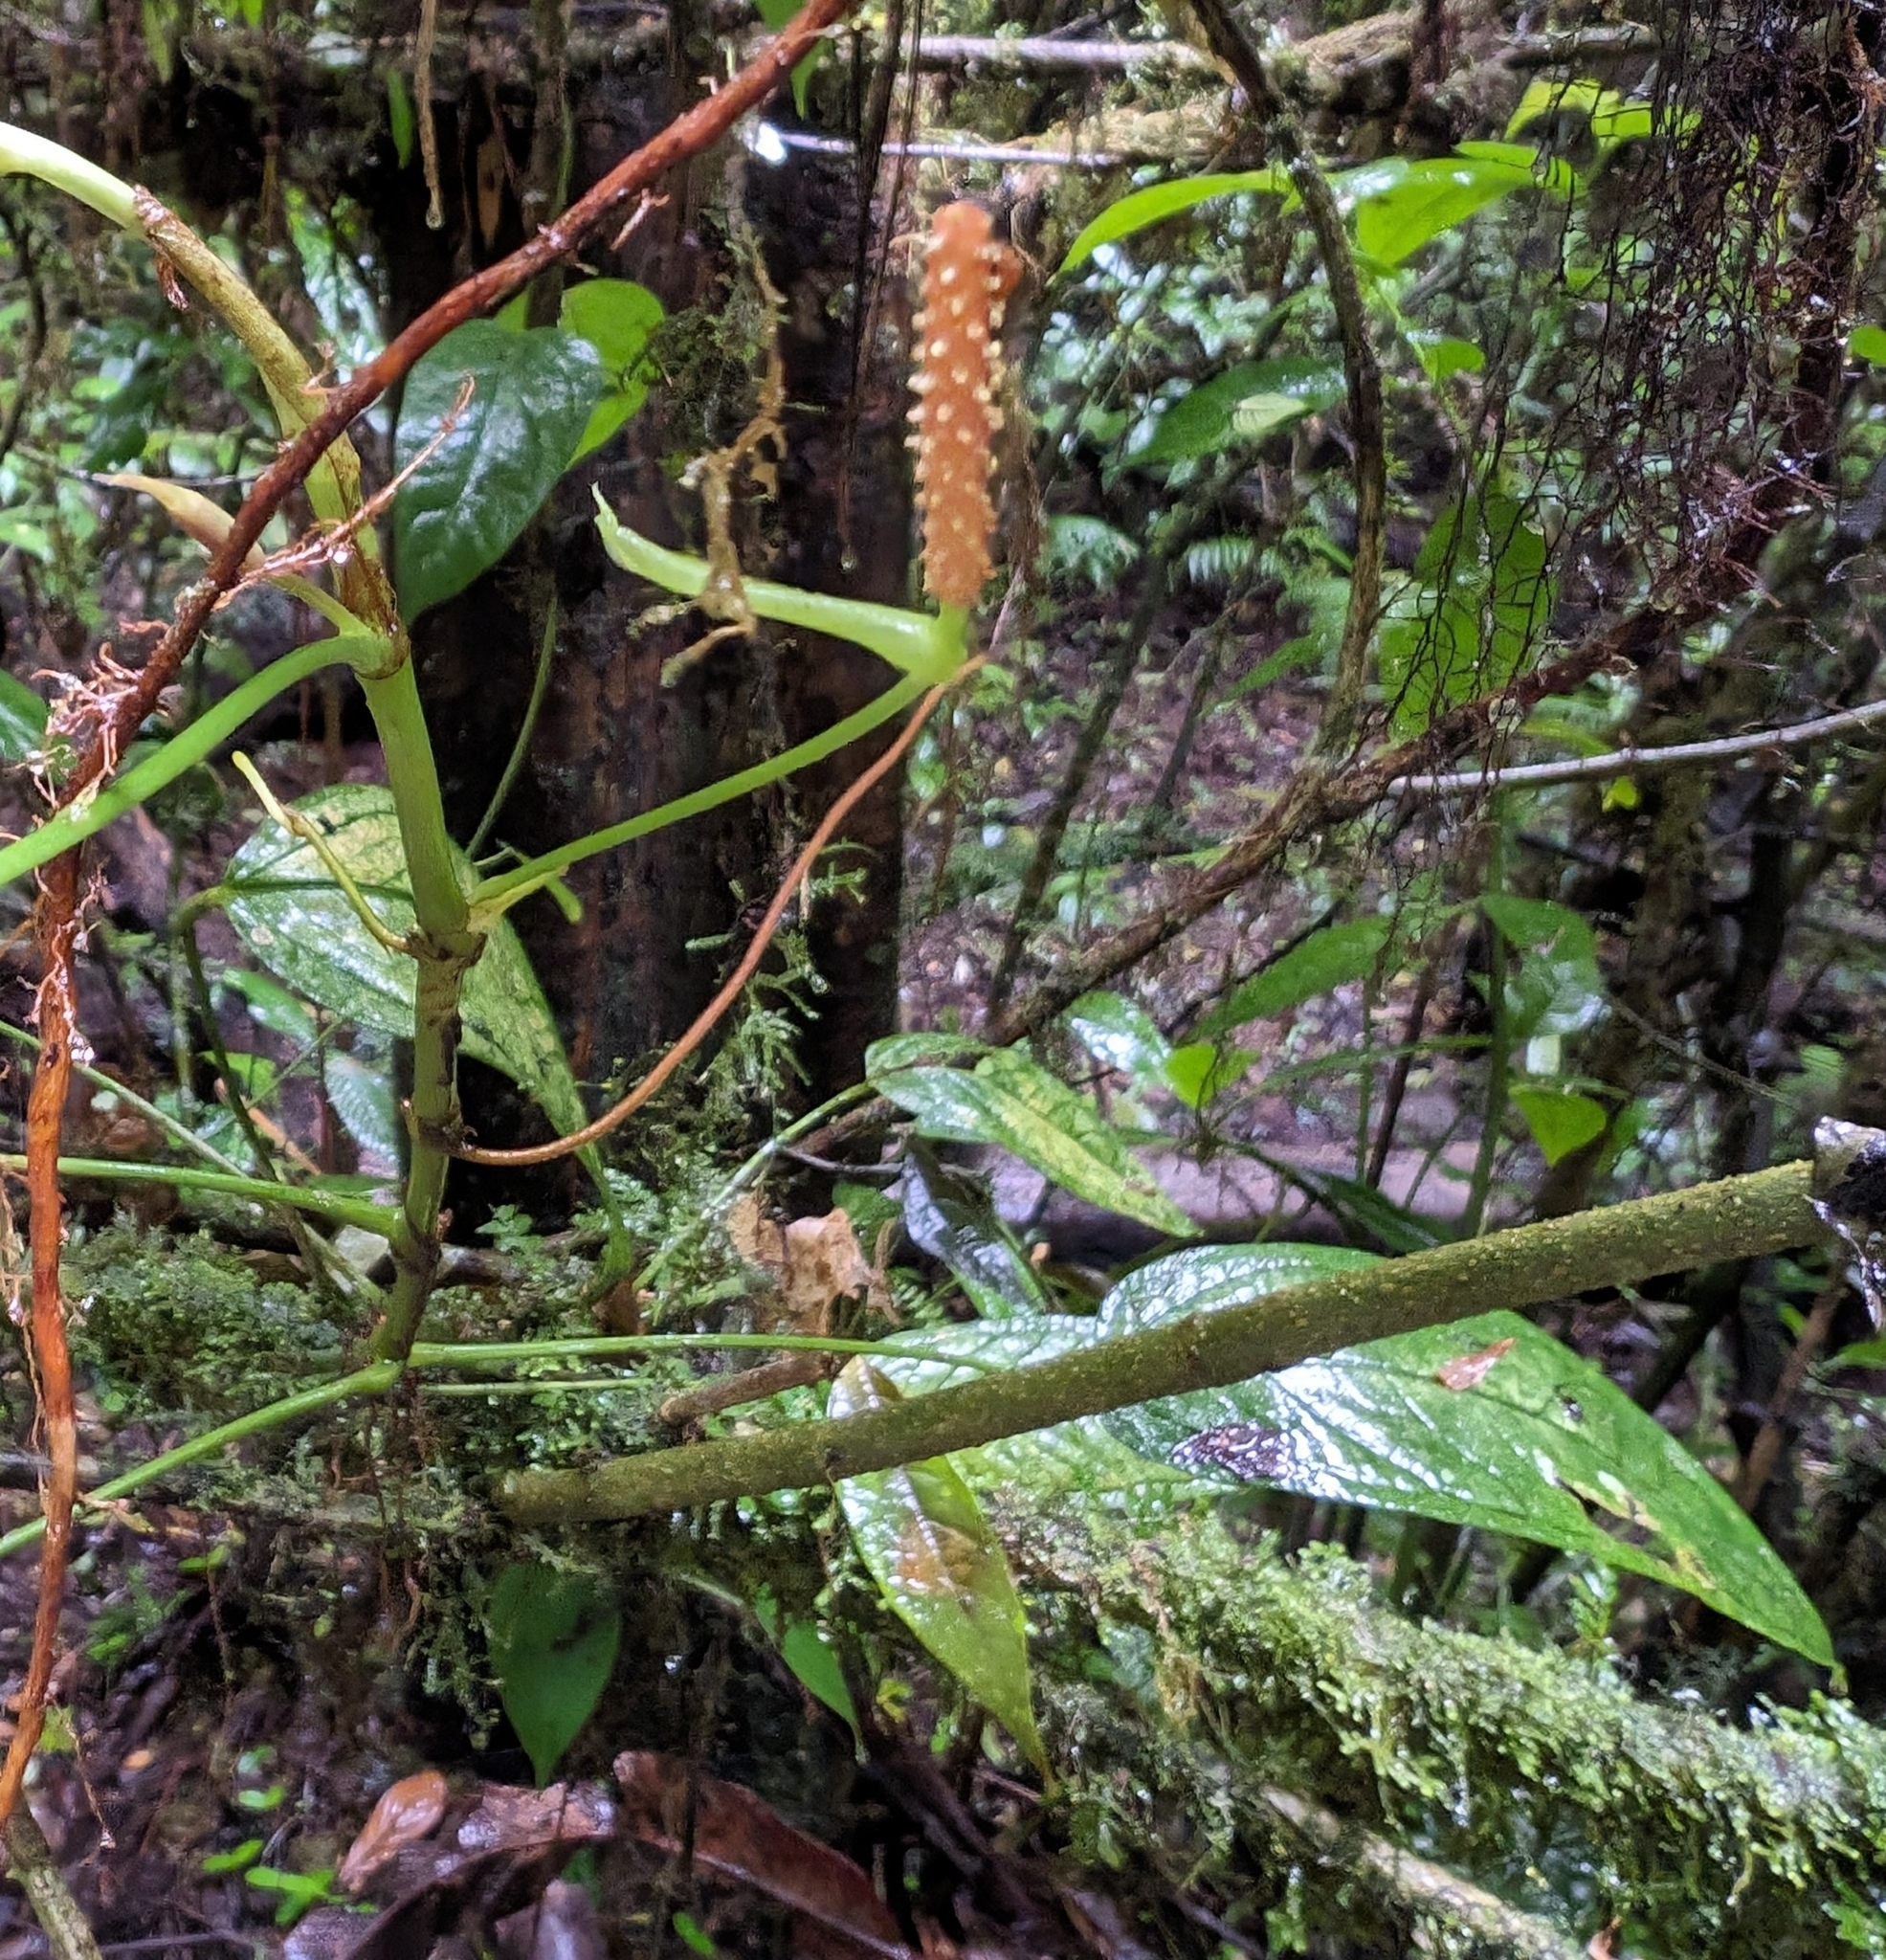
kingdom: Plantae
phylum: Tracheophyta
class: Liliopsida
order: Alismatales
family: Araceae
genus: Anthurium
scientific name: Anthurium microspadix
